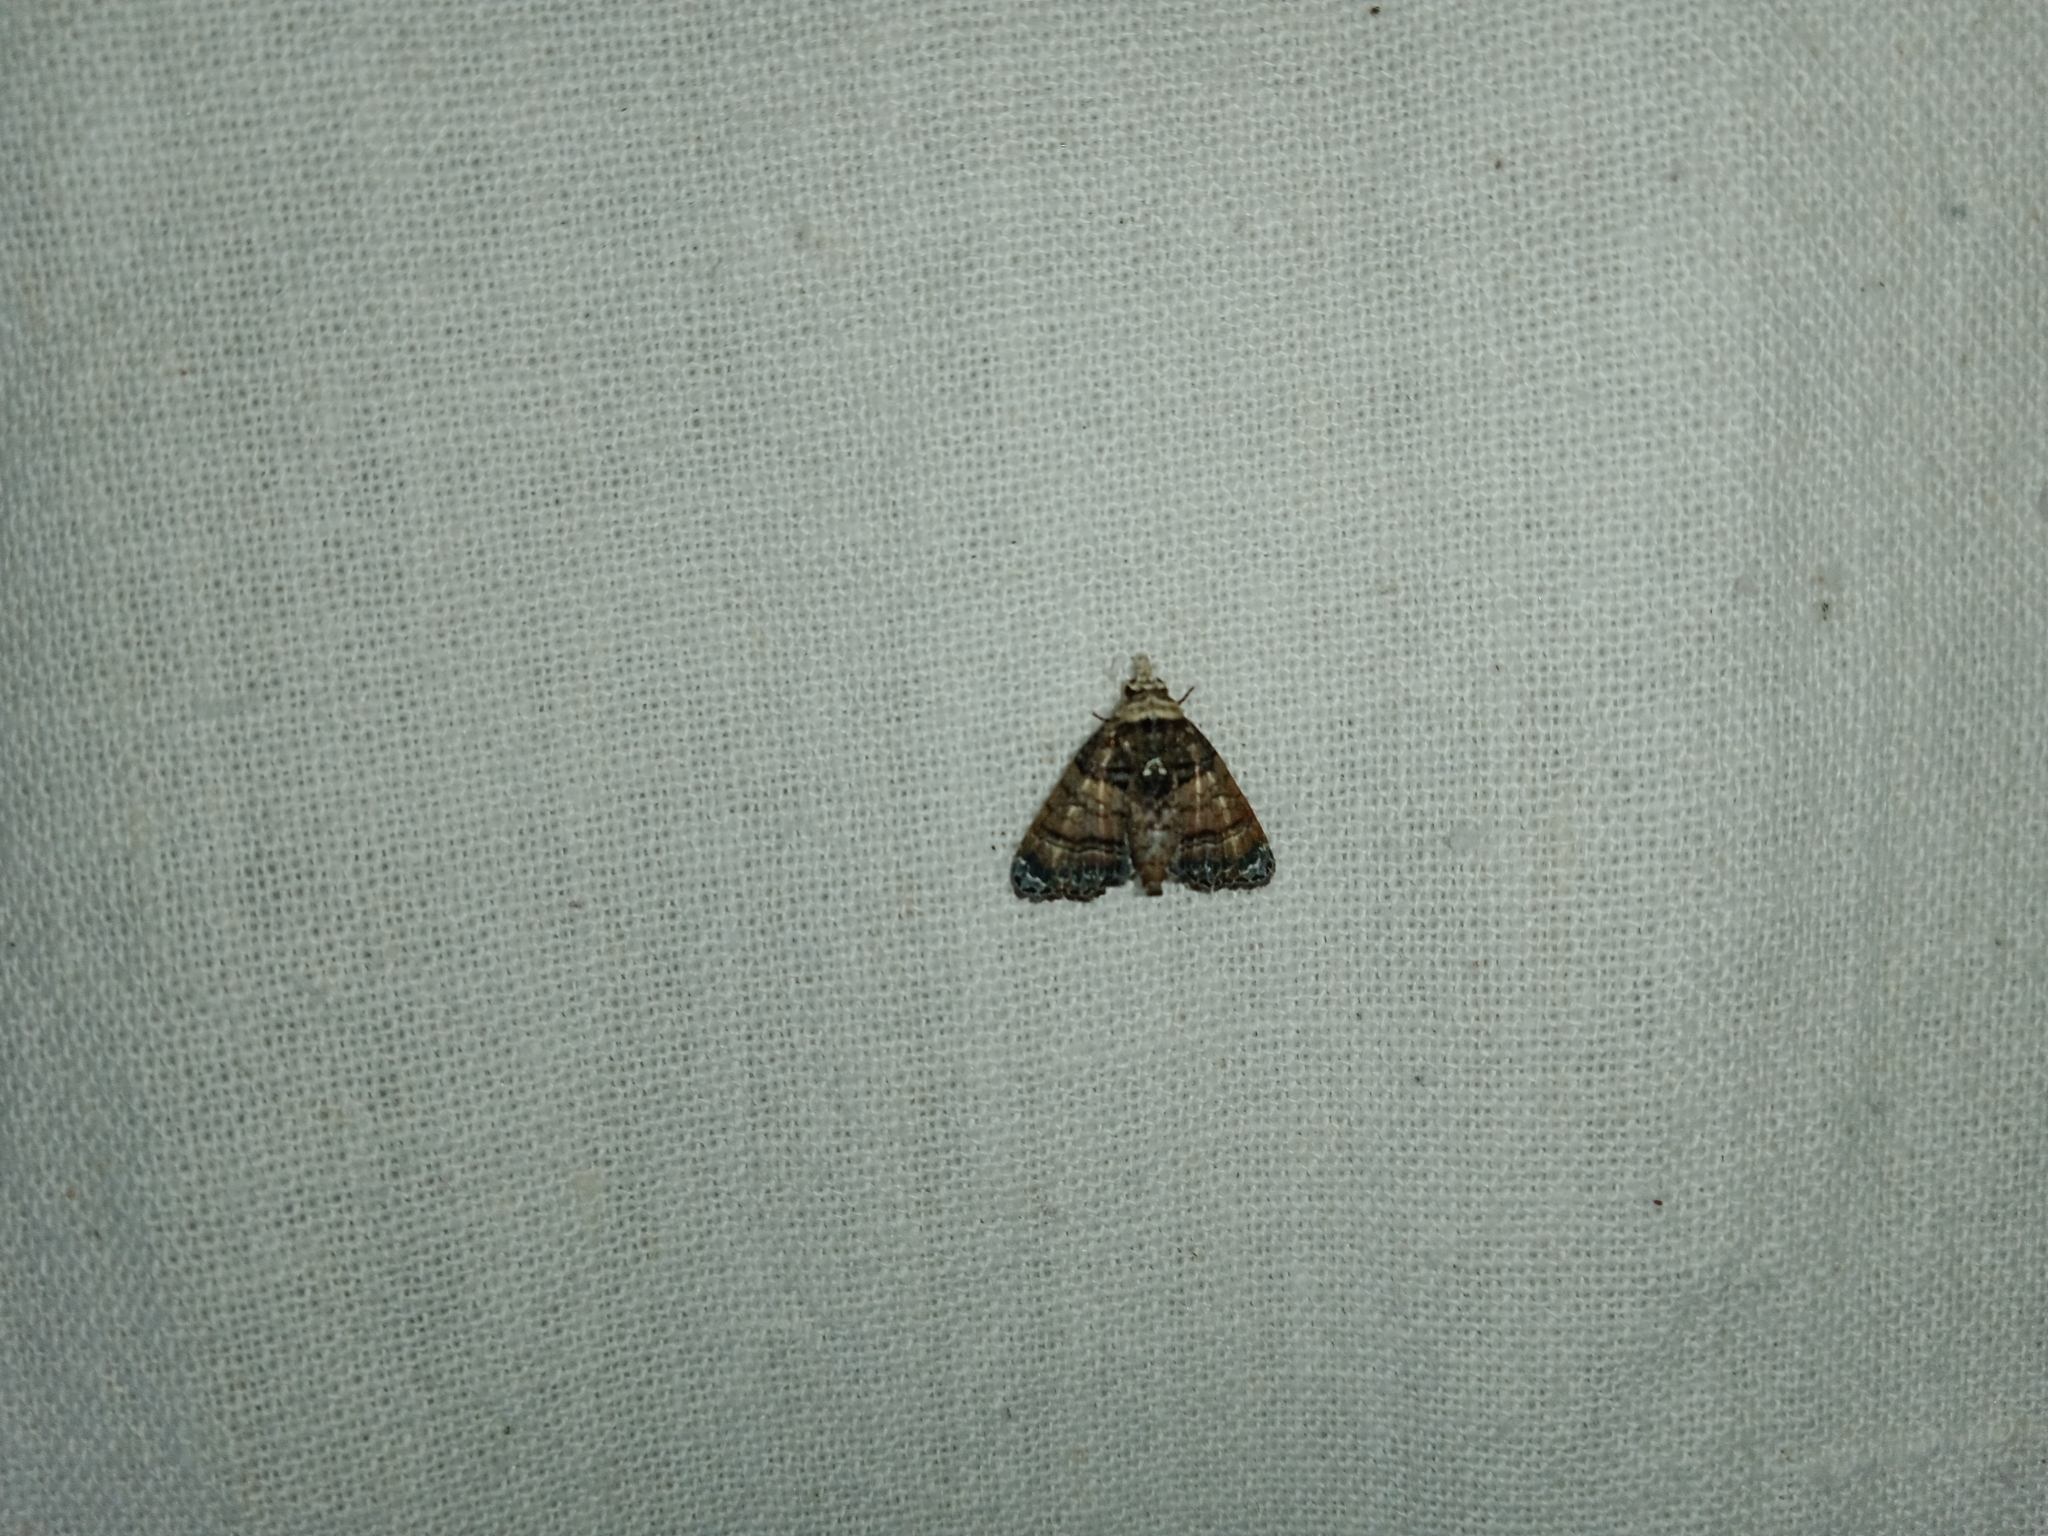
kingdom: Animalia
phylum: Arthropoda
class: Insecta
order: Lepidoptera
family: Euteliidae
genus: Chlumetia
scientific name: Chlumetia transversa
